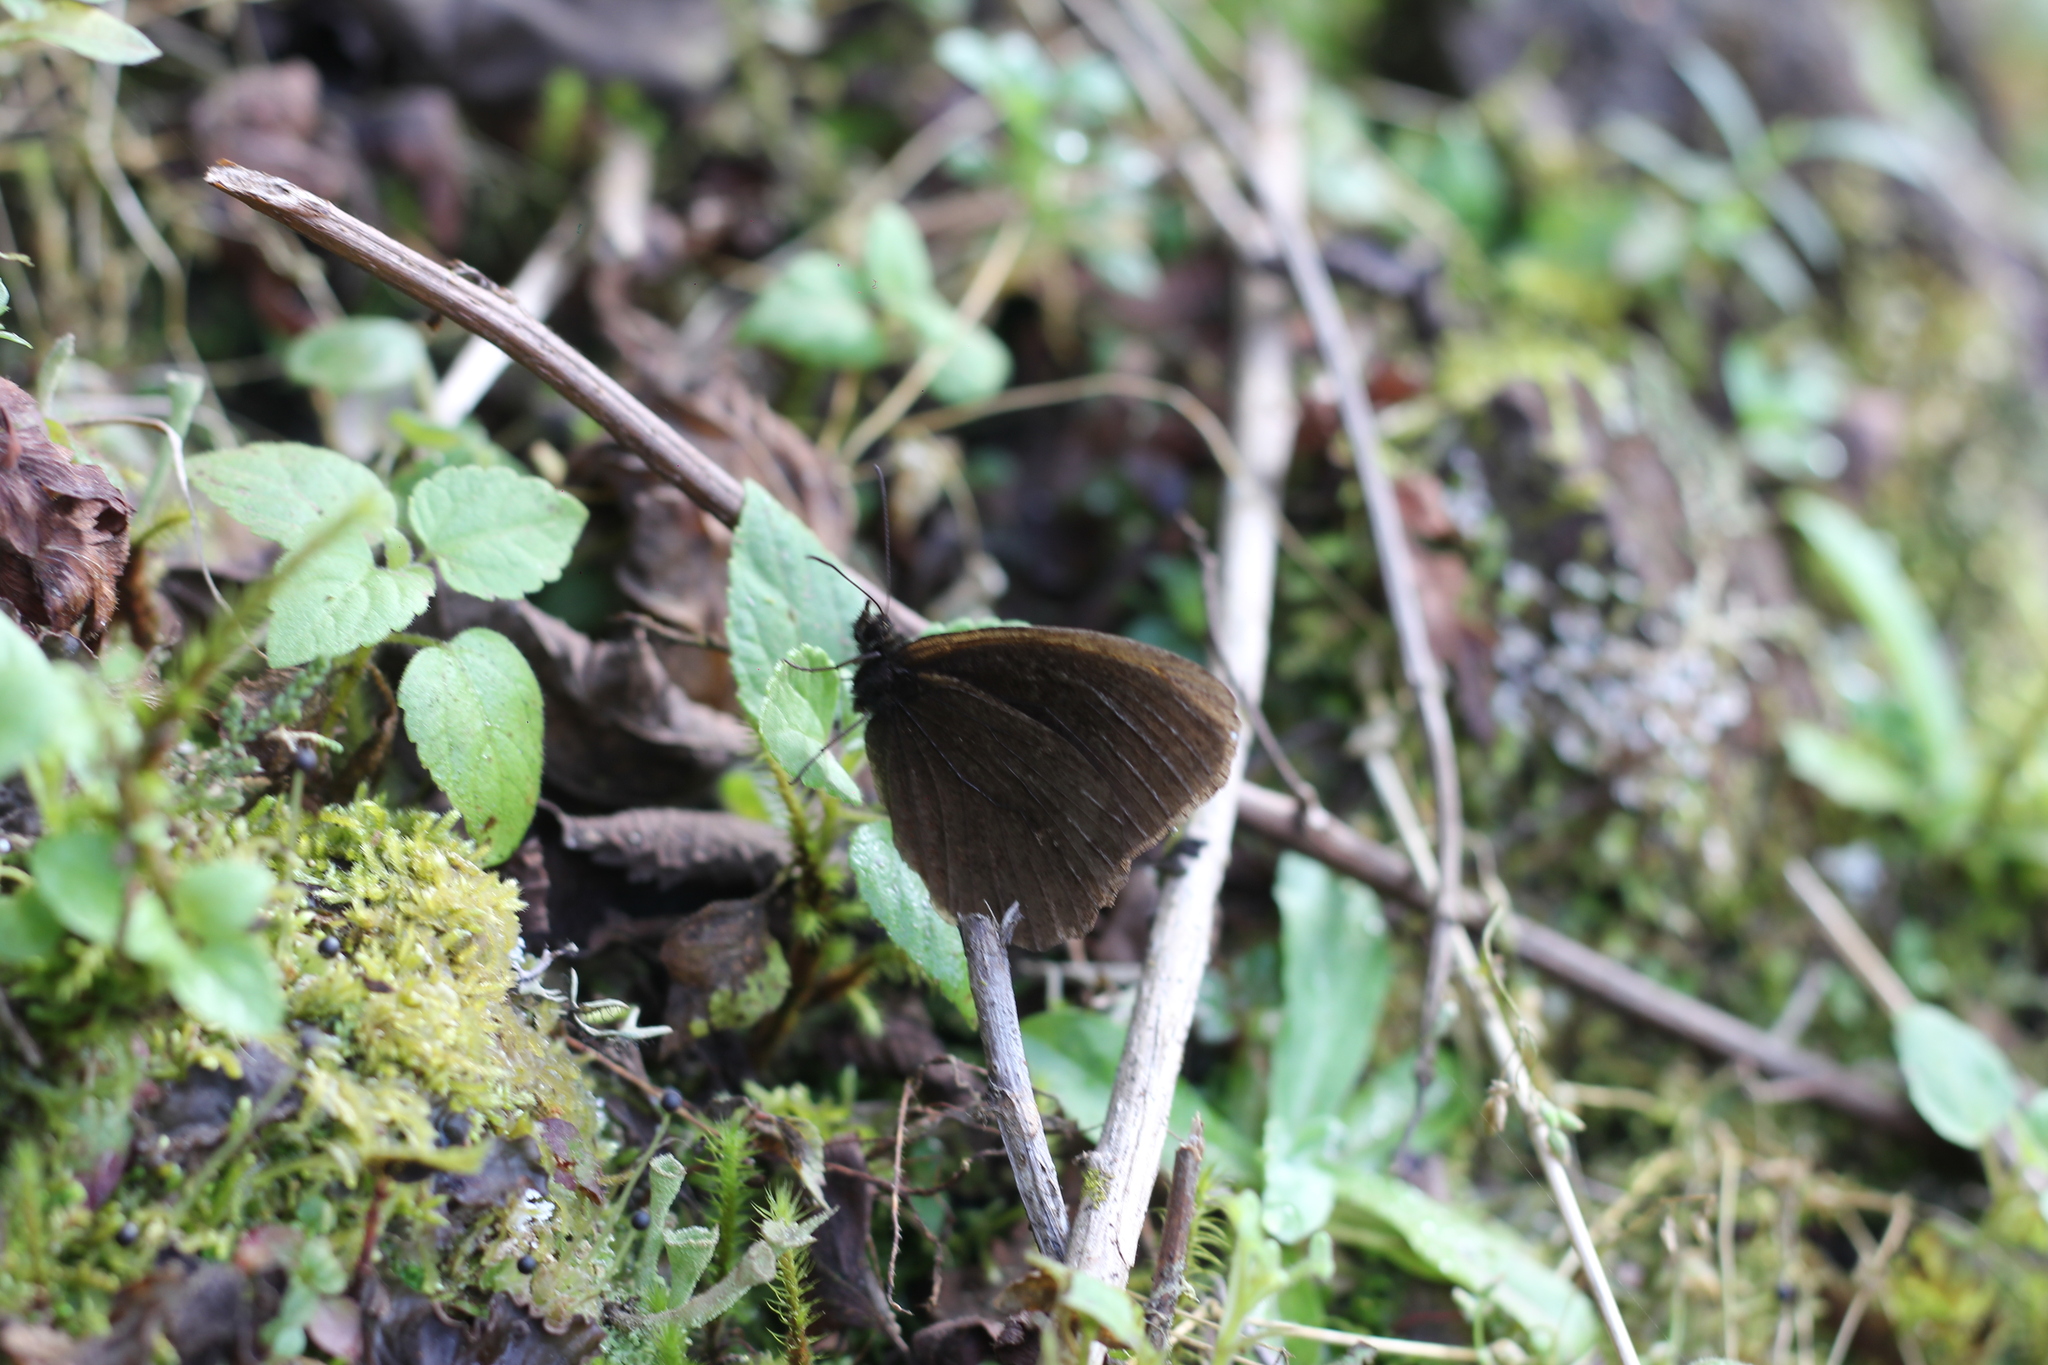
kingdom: Animalia
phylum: Arthropoda
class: Insecta
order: Lepidoptera
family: Nymphalidae
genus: Pedaliodes
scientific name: Pedaliodes ferratilis
